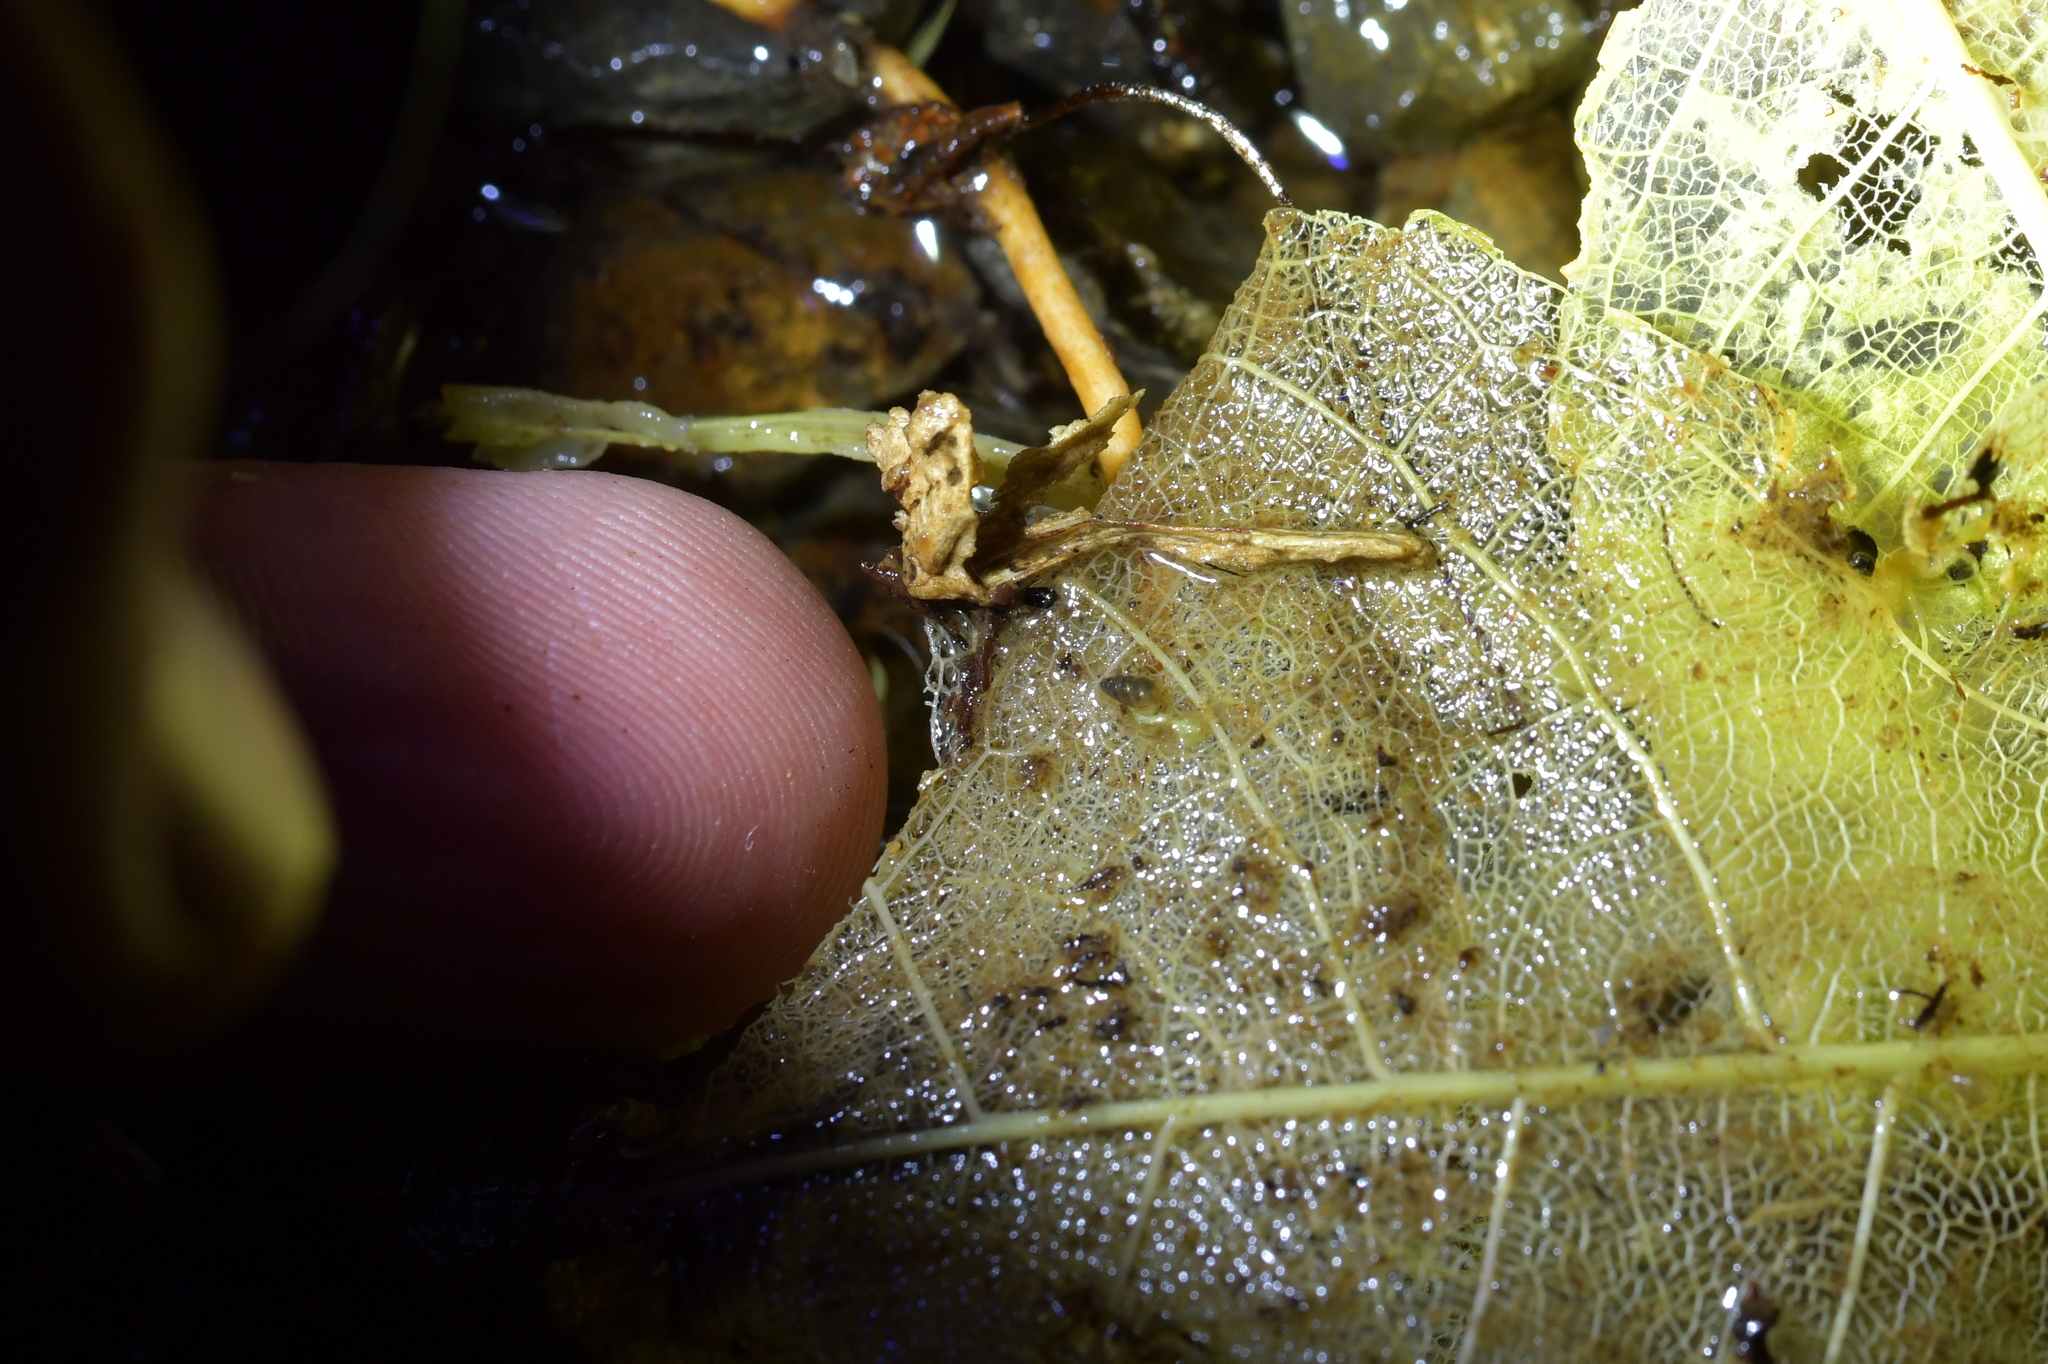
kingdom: Animalia
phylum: Mollusca
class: Gastropoda
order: Littorinimorpha
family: Tateidae
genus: Potamopyrgus
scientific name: Potamopyrgus oppidanus
